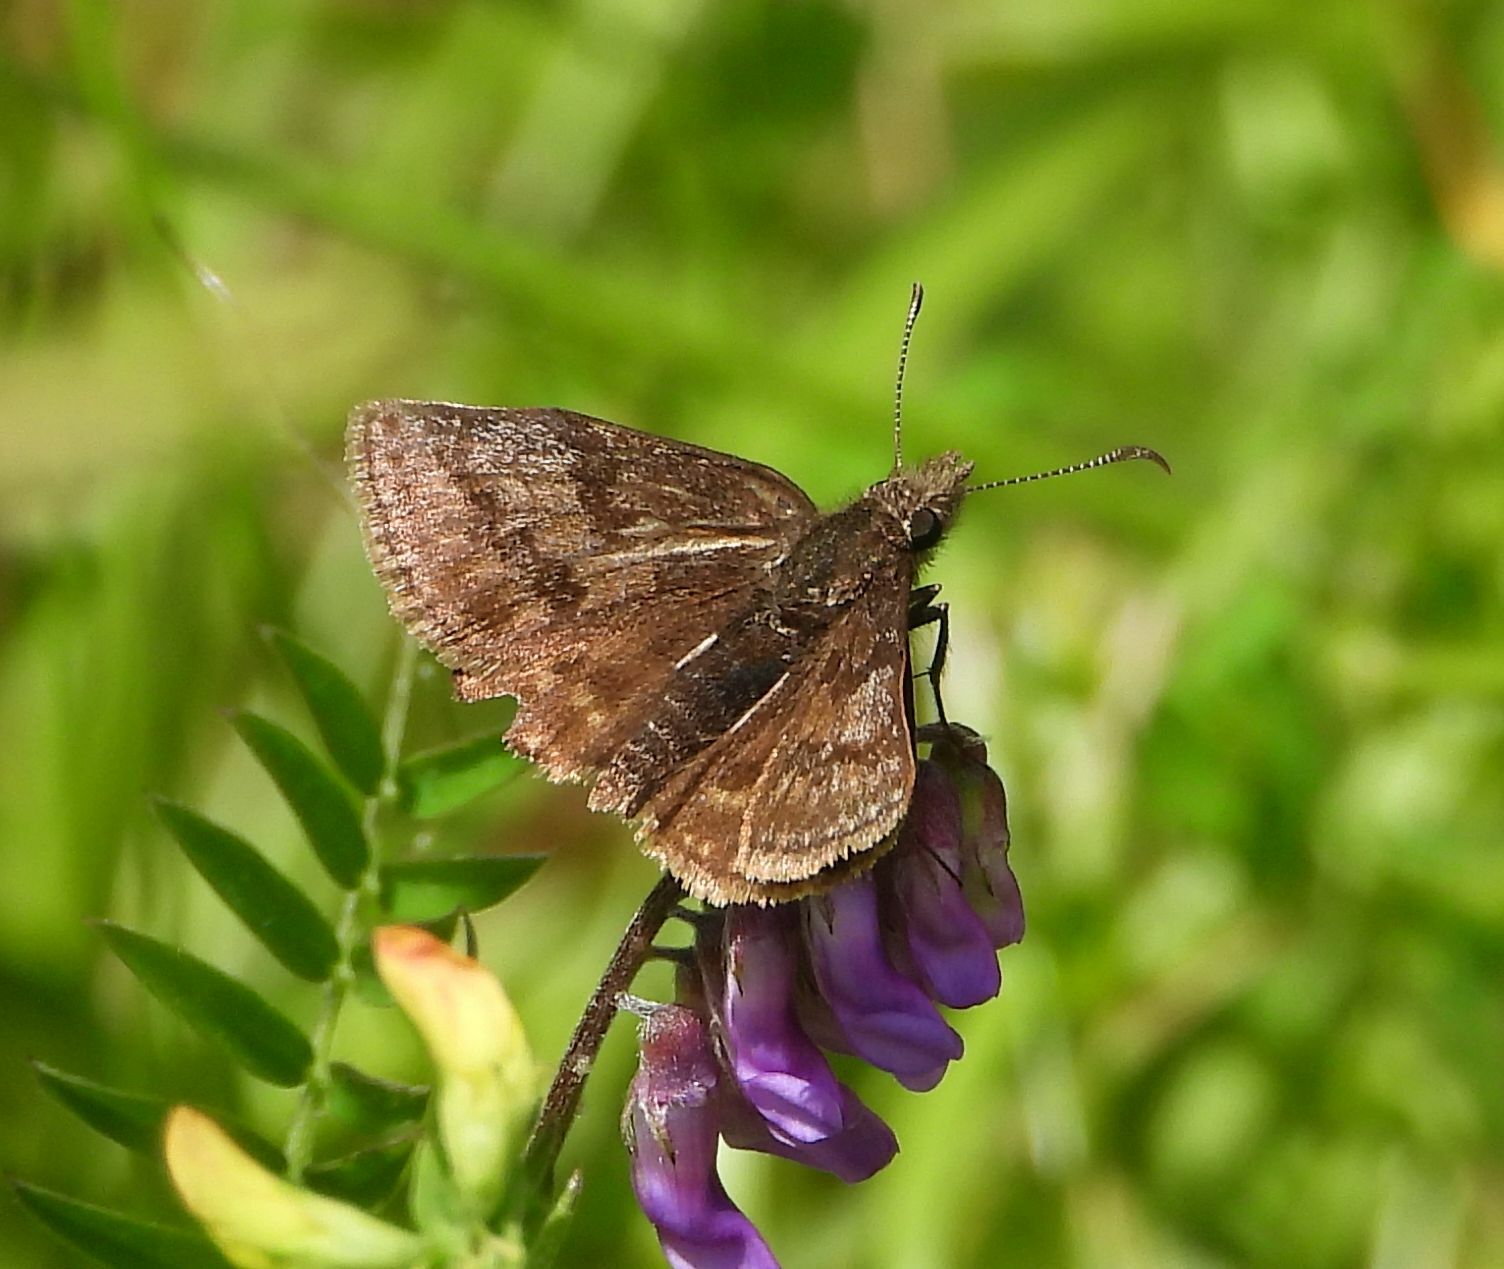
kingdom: Animalia
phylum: Arthropoda
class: Insecta
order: Lepidoptera
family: Hesperiidae
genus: Erynnis
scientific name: Erynnis icelus
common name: Dreamy duskywing
